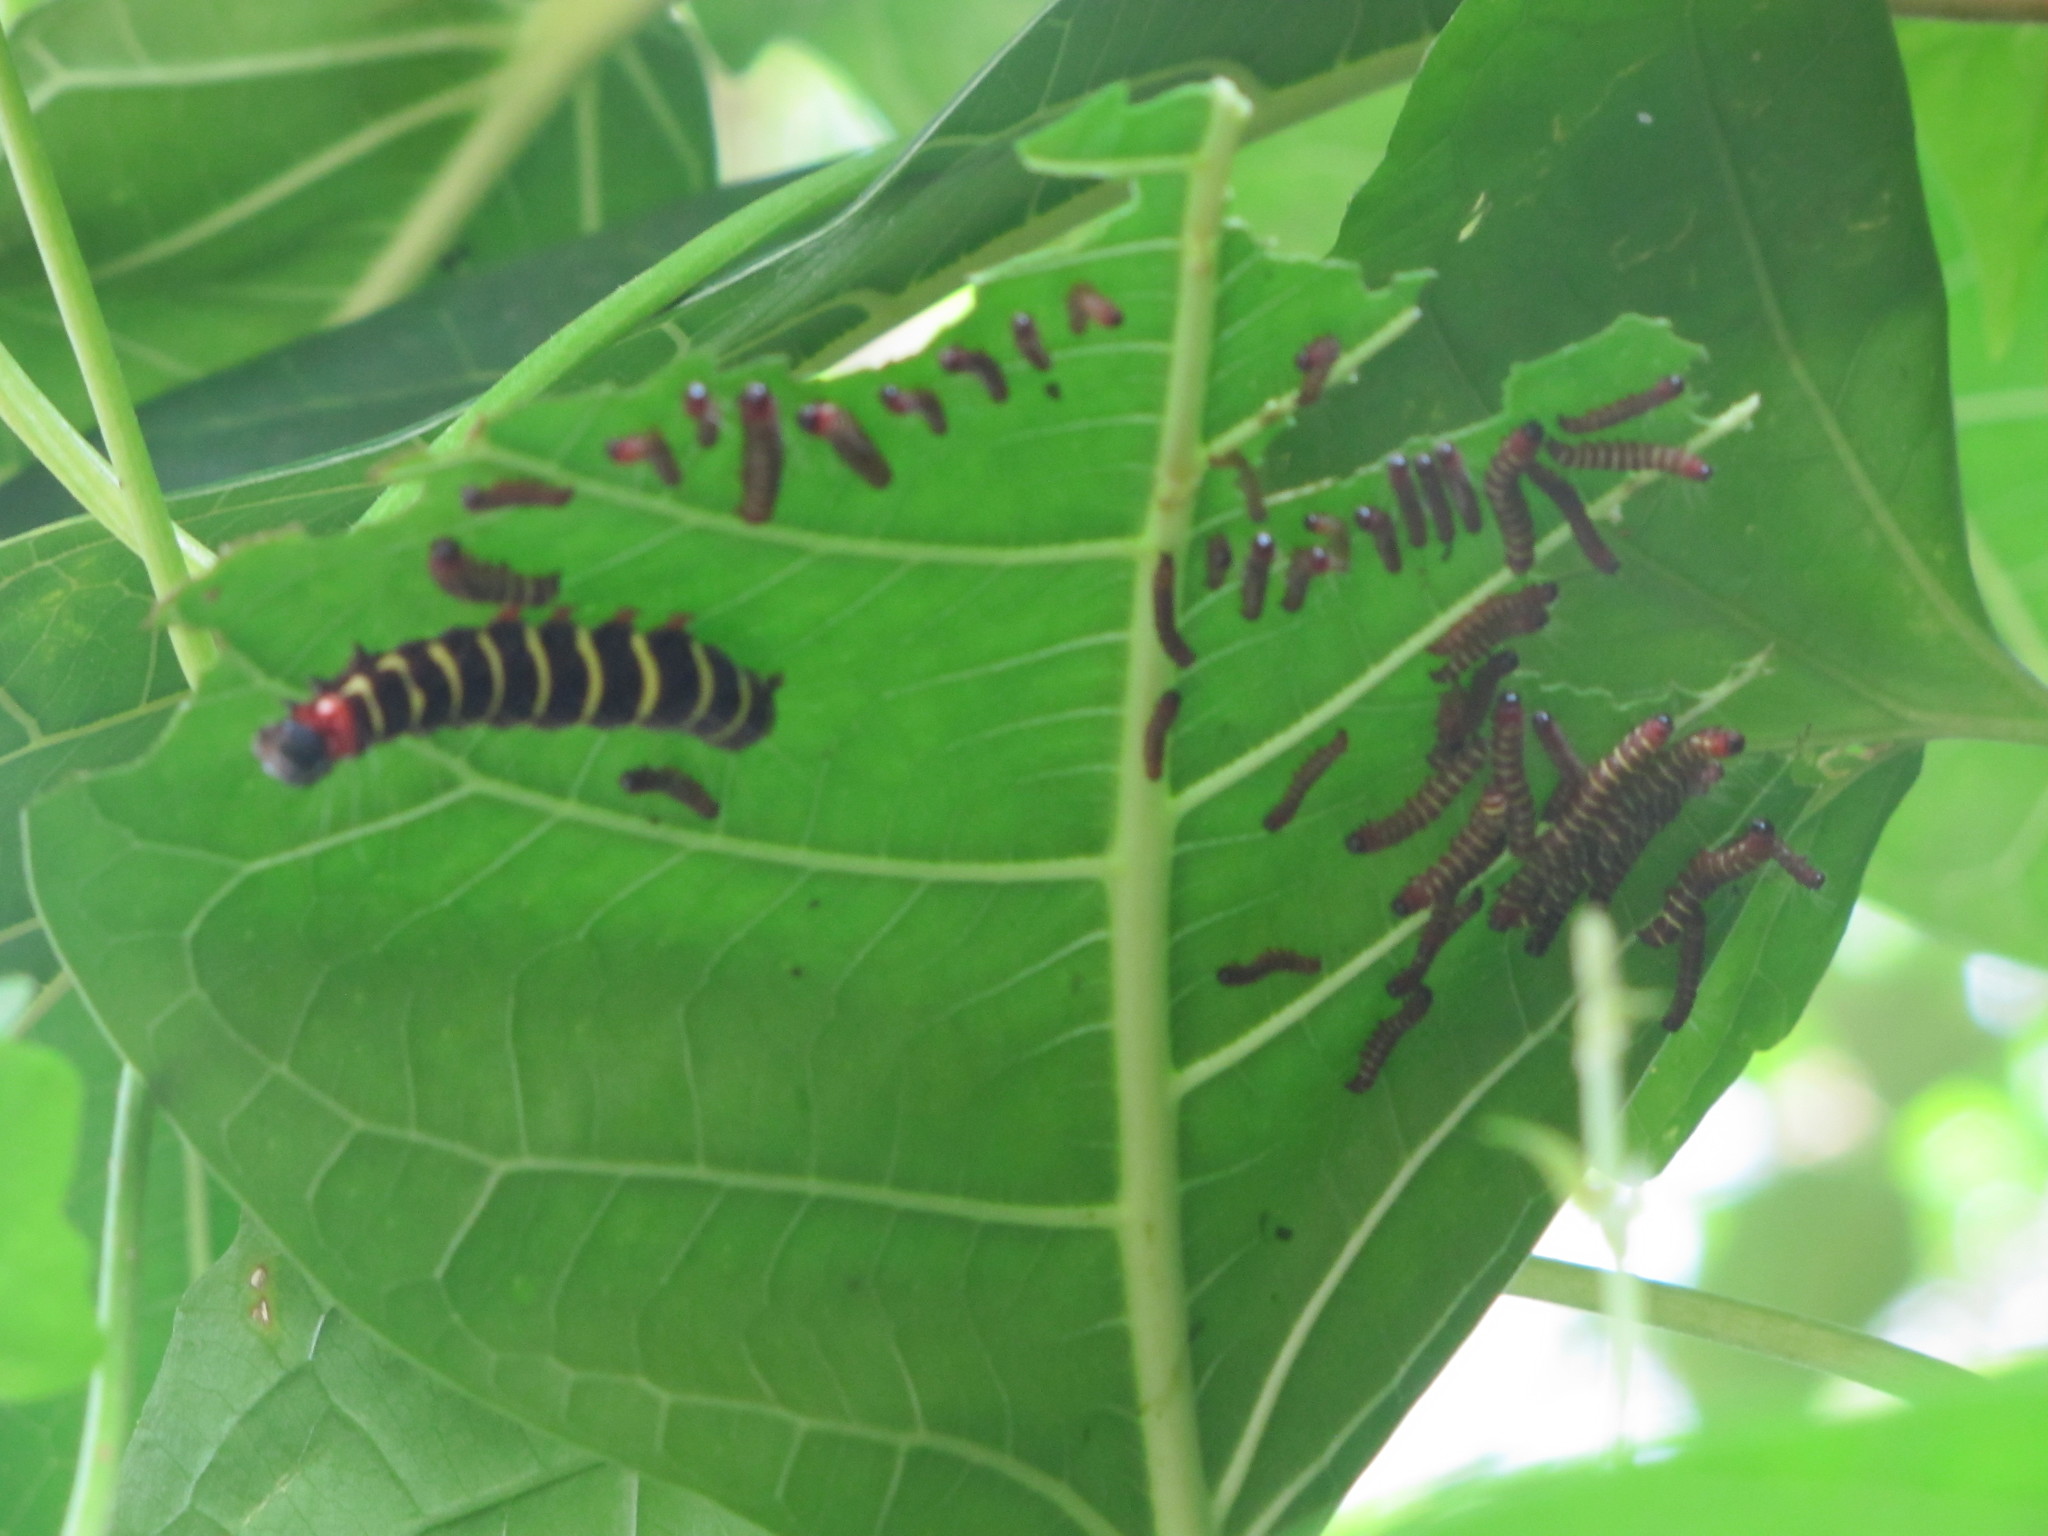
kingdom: Animalia
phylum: Arthropoda
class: Insecta
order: Lepidoptera
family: Erebidae
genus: Asota
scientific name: Asota plana
